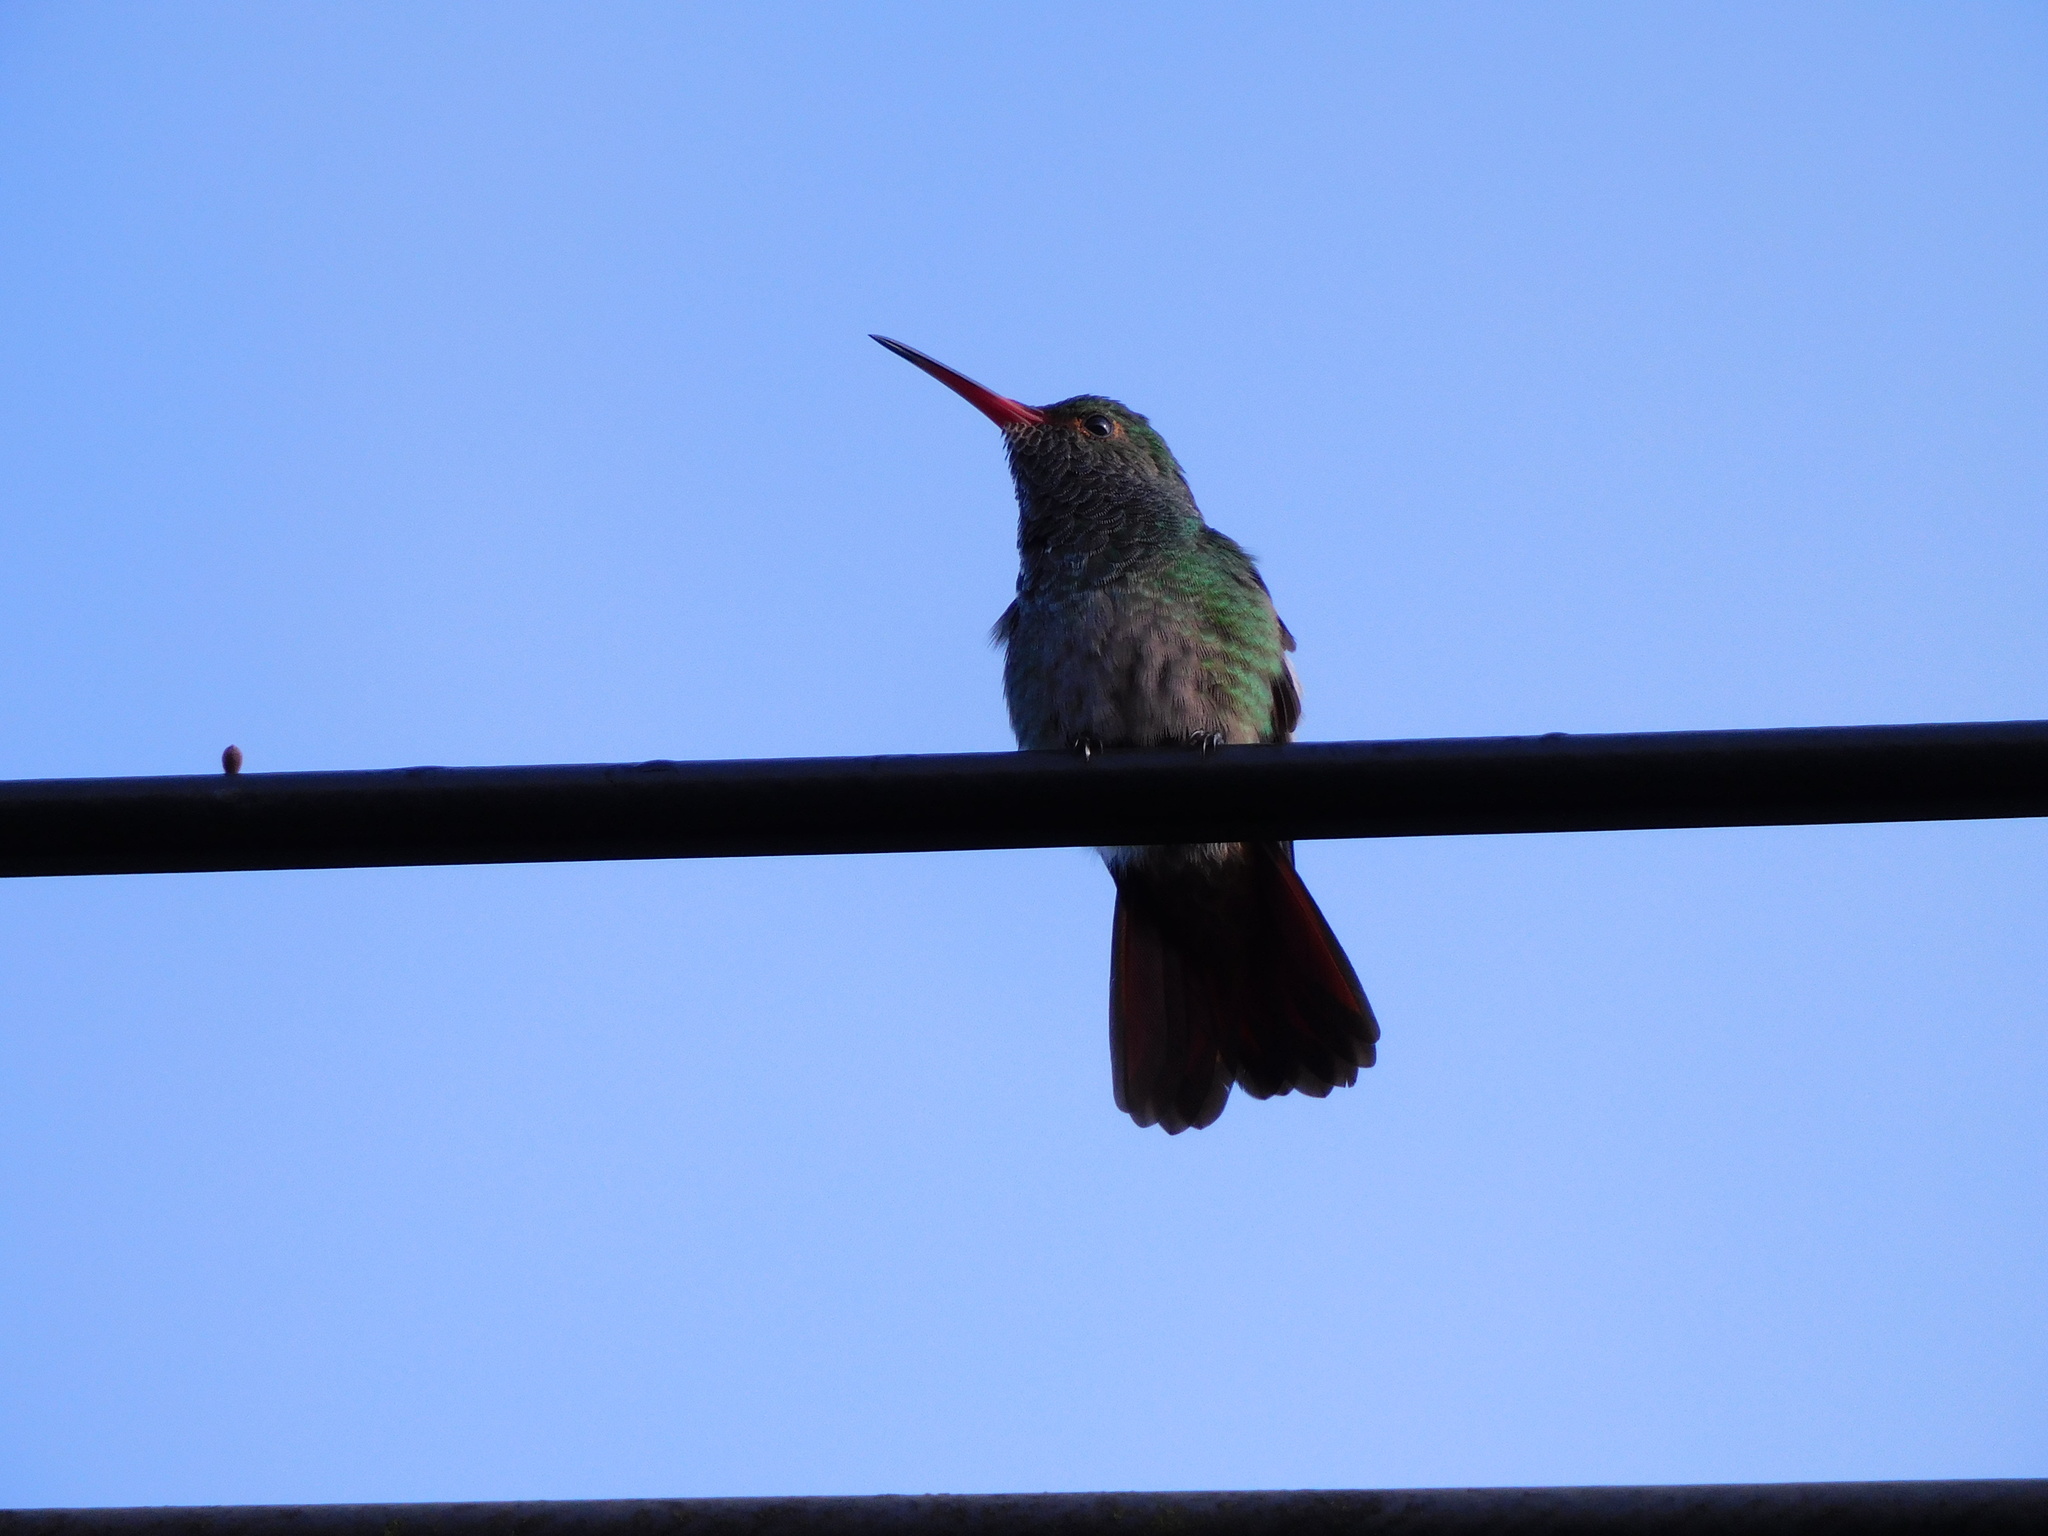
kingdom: Animalia
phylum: Chordata
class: Aves
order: Apodiformes
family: Trochilidae
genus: Amazilia
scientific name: Amazilia tzacatl
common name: Rufous-tailed hummingbird
